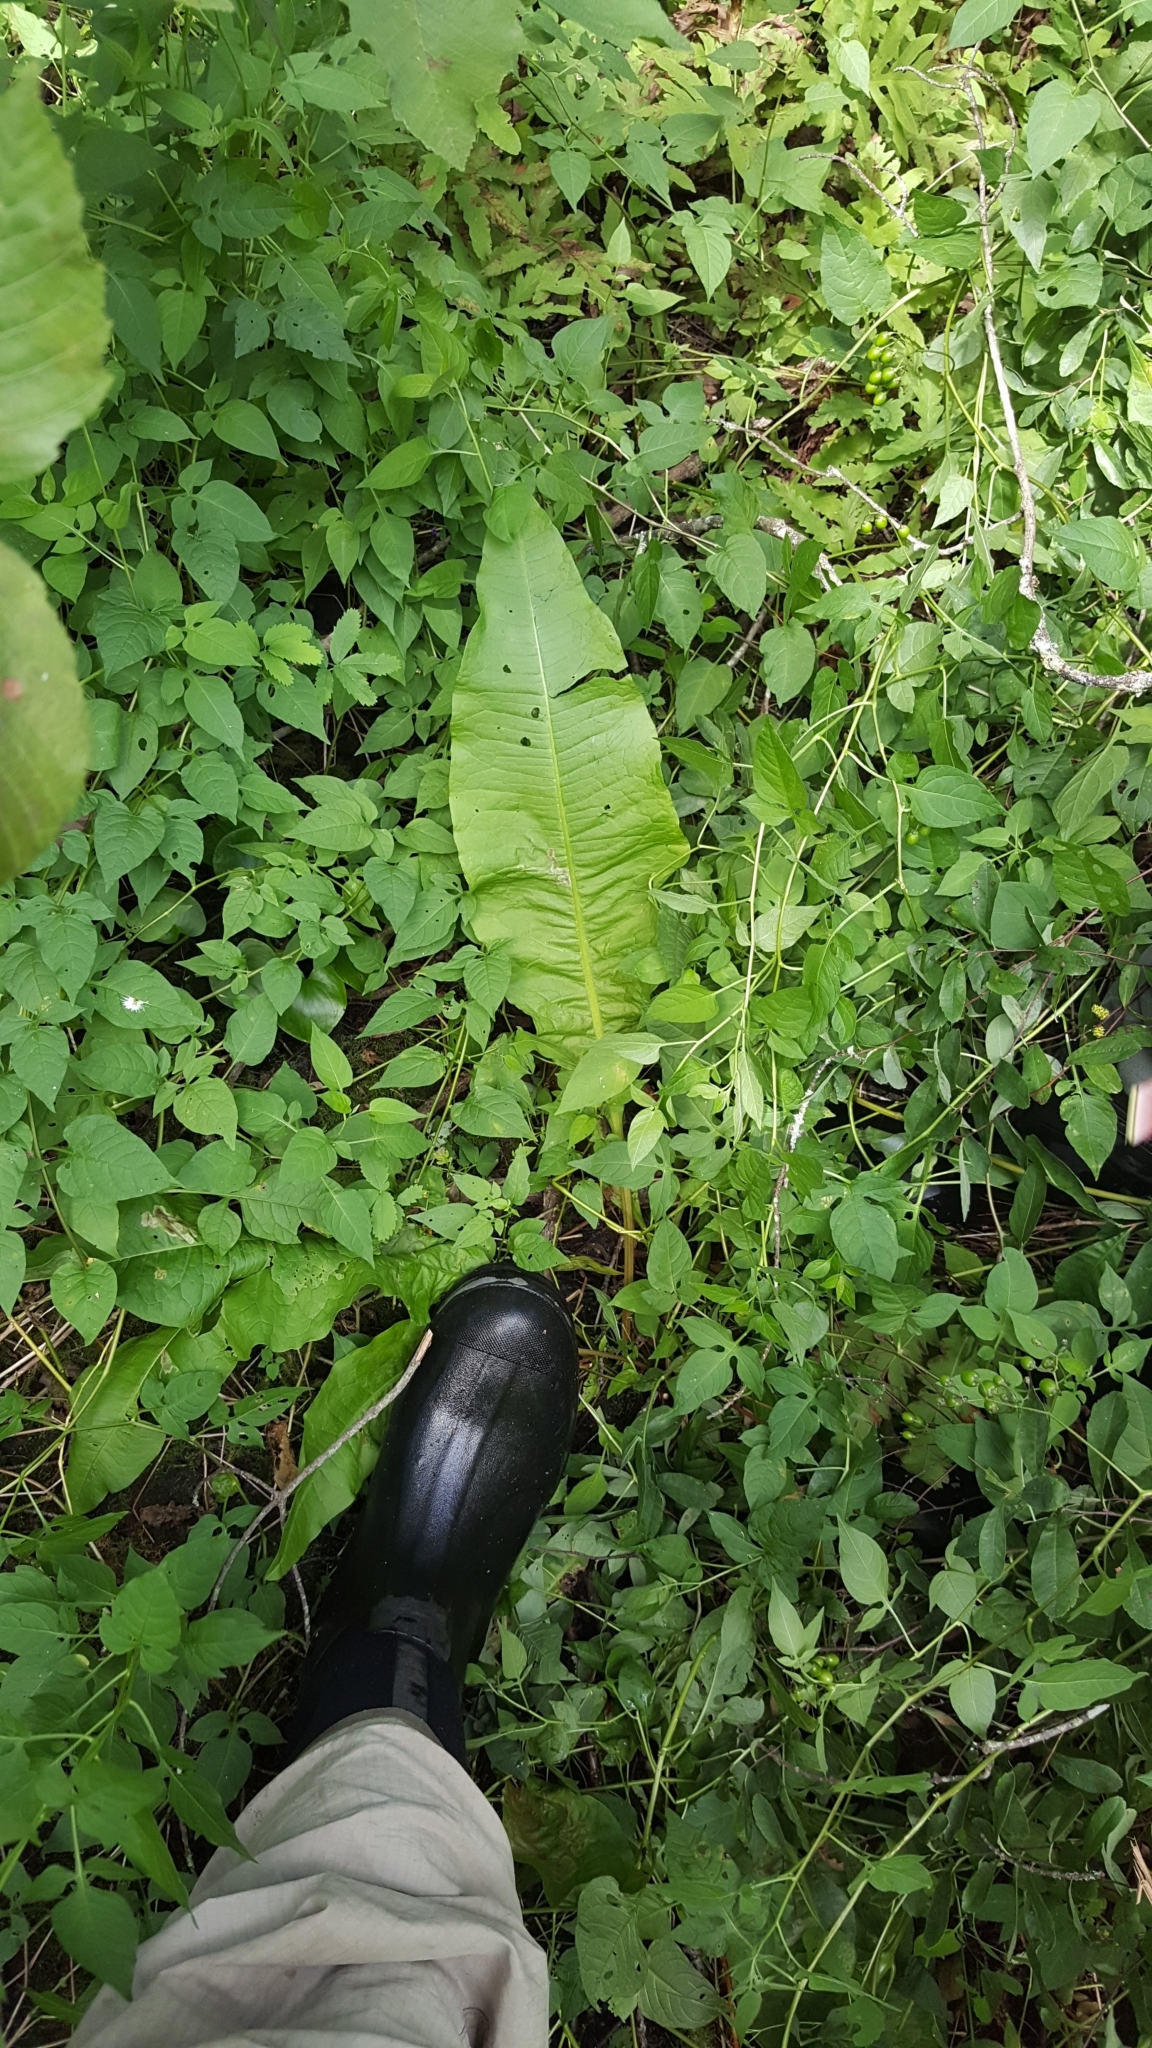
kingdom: Plantae
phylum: Tracheophyta
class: Magnoliopsida
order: Caryophyllales
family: Polygonaceae
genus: Rumex
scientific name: Rumex britannica
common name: British dock
